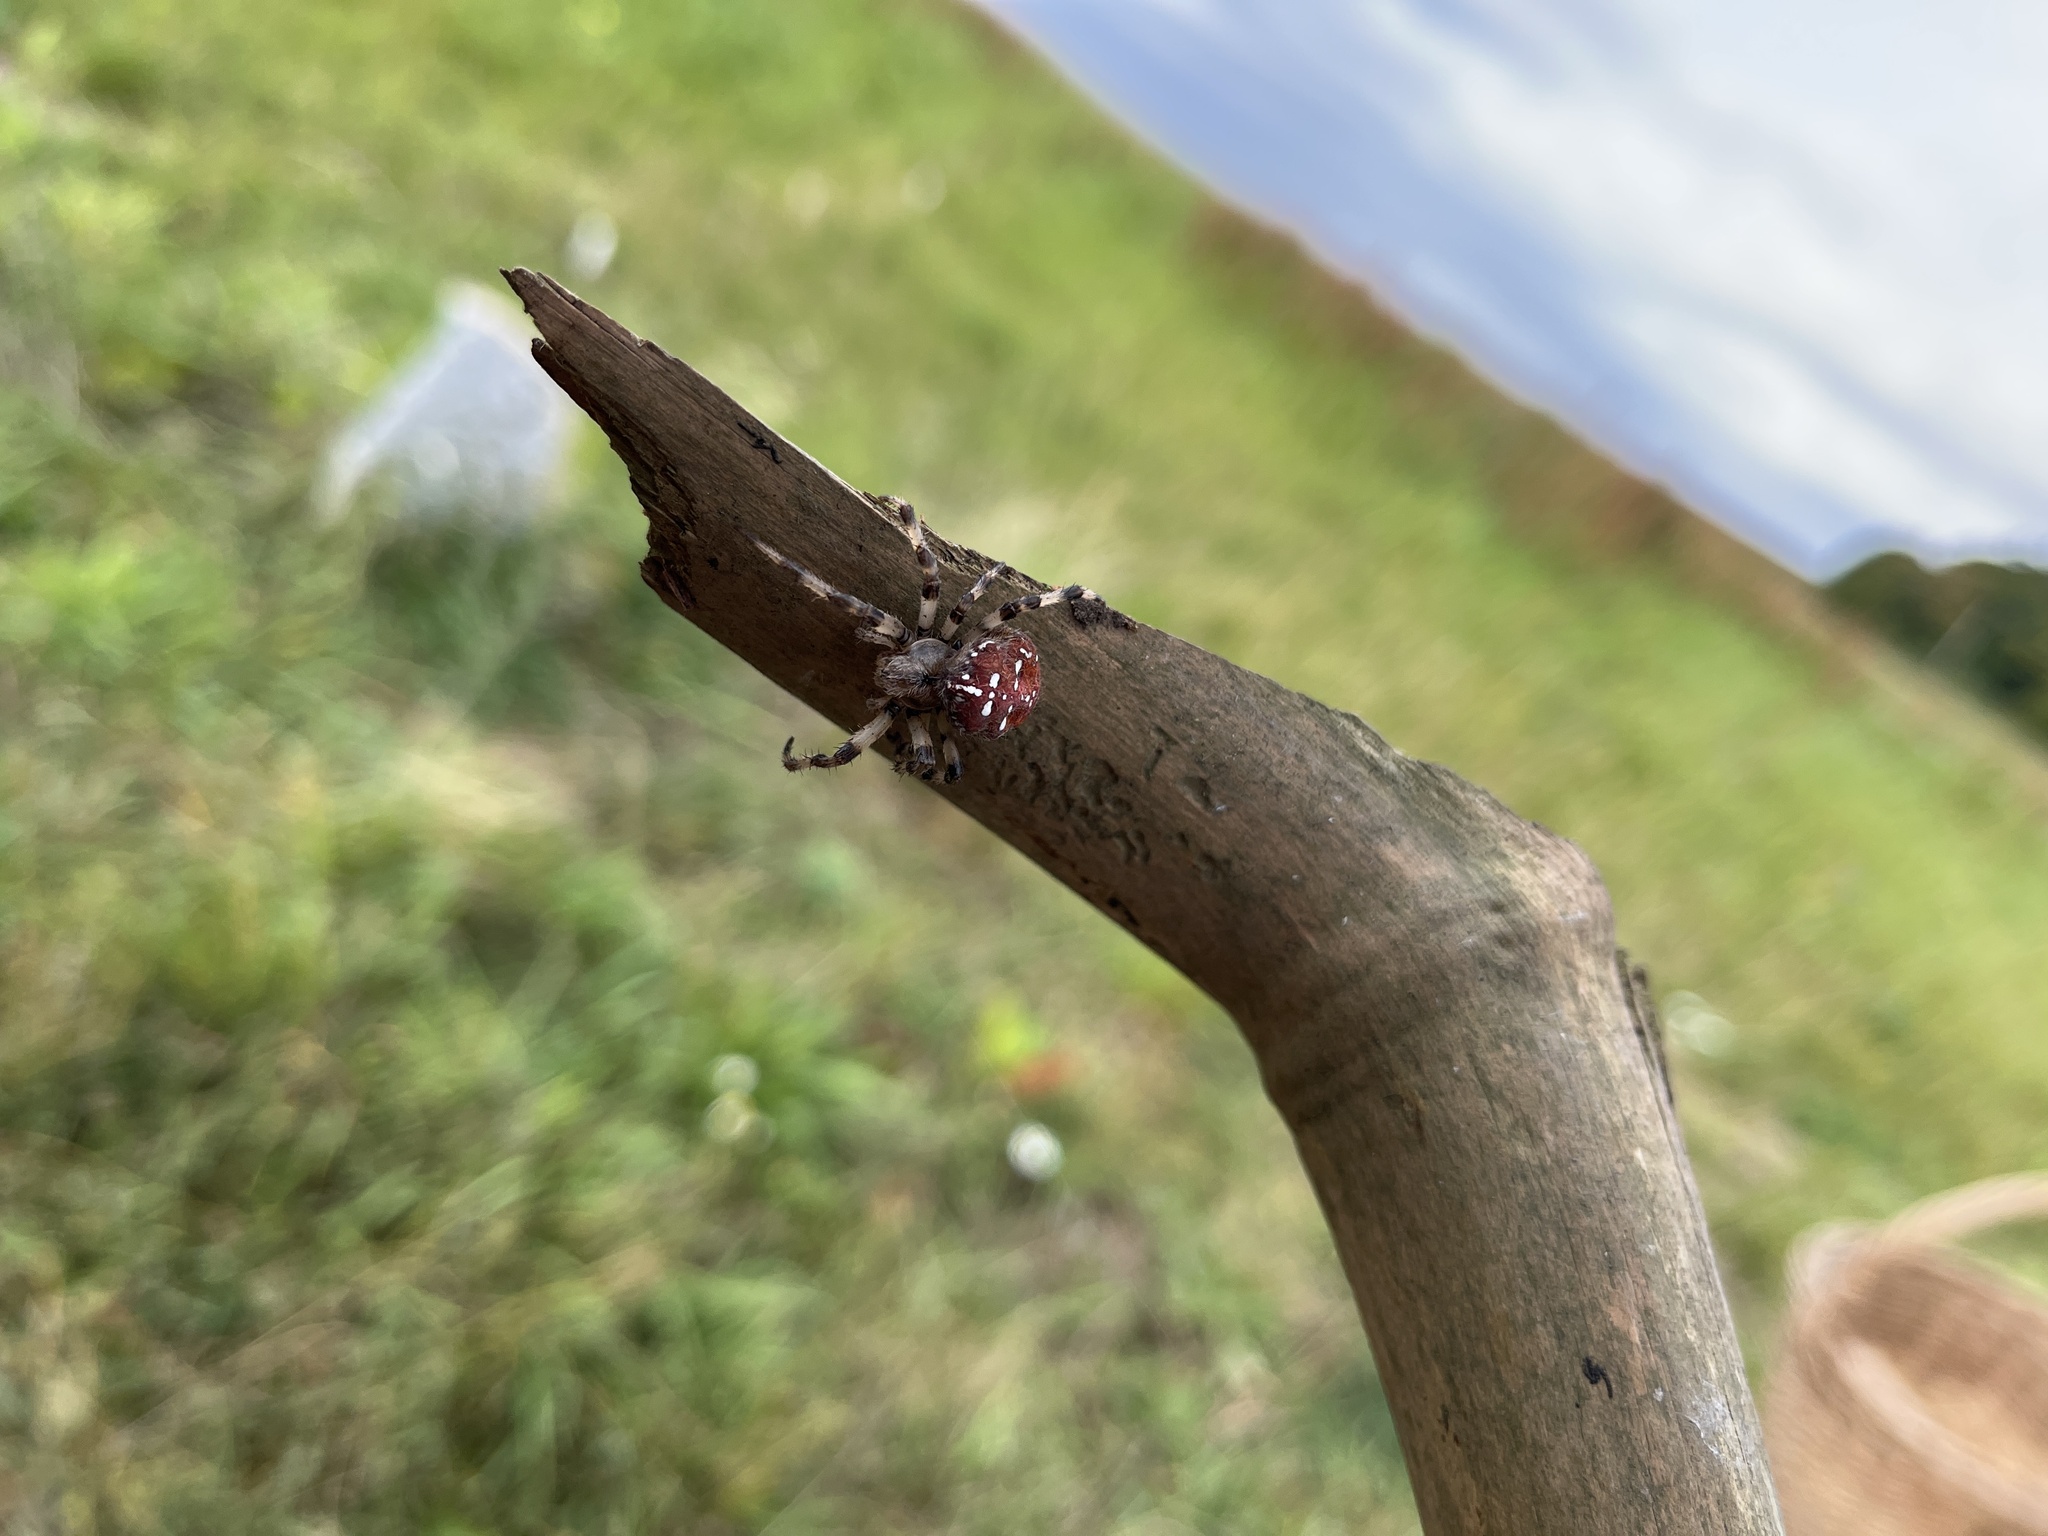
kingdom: Animalia
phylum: Arthropoda
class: Arachnida
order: Araneae
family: Araneidae
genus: Araneus
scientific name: Araneus quadratus
